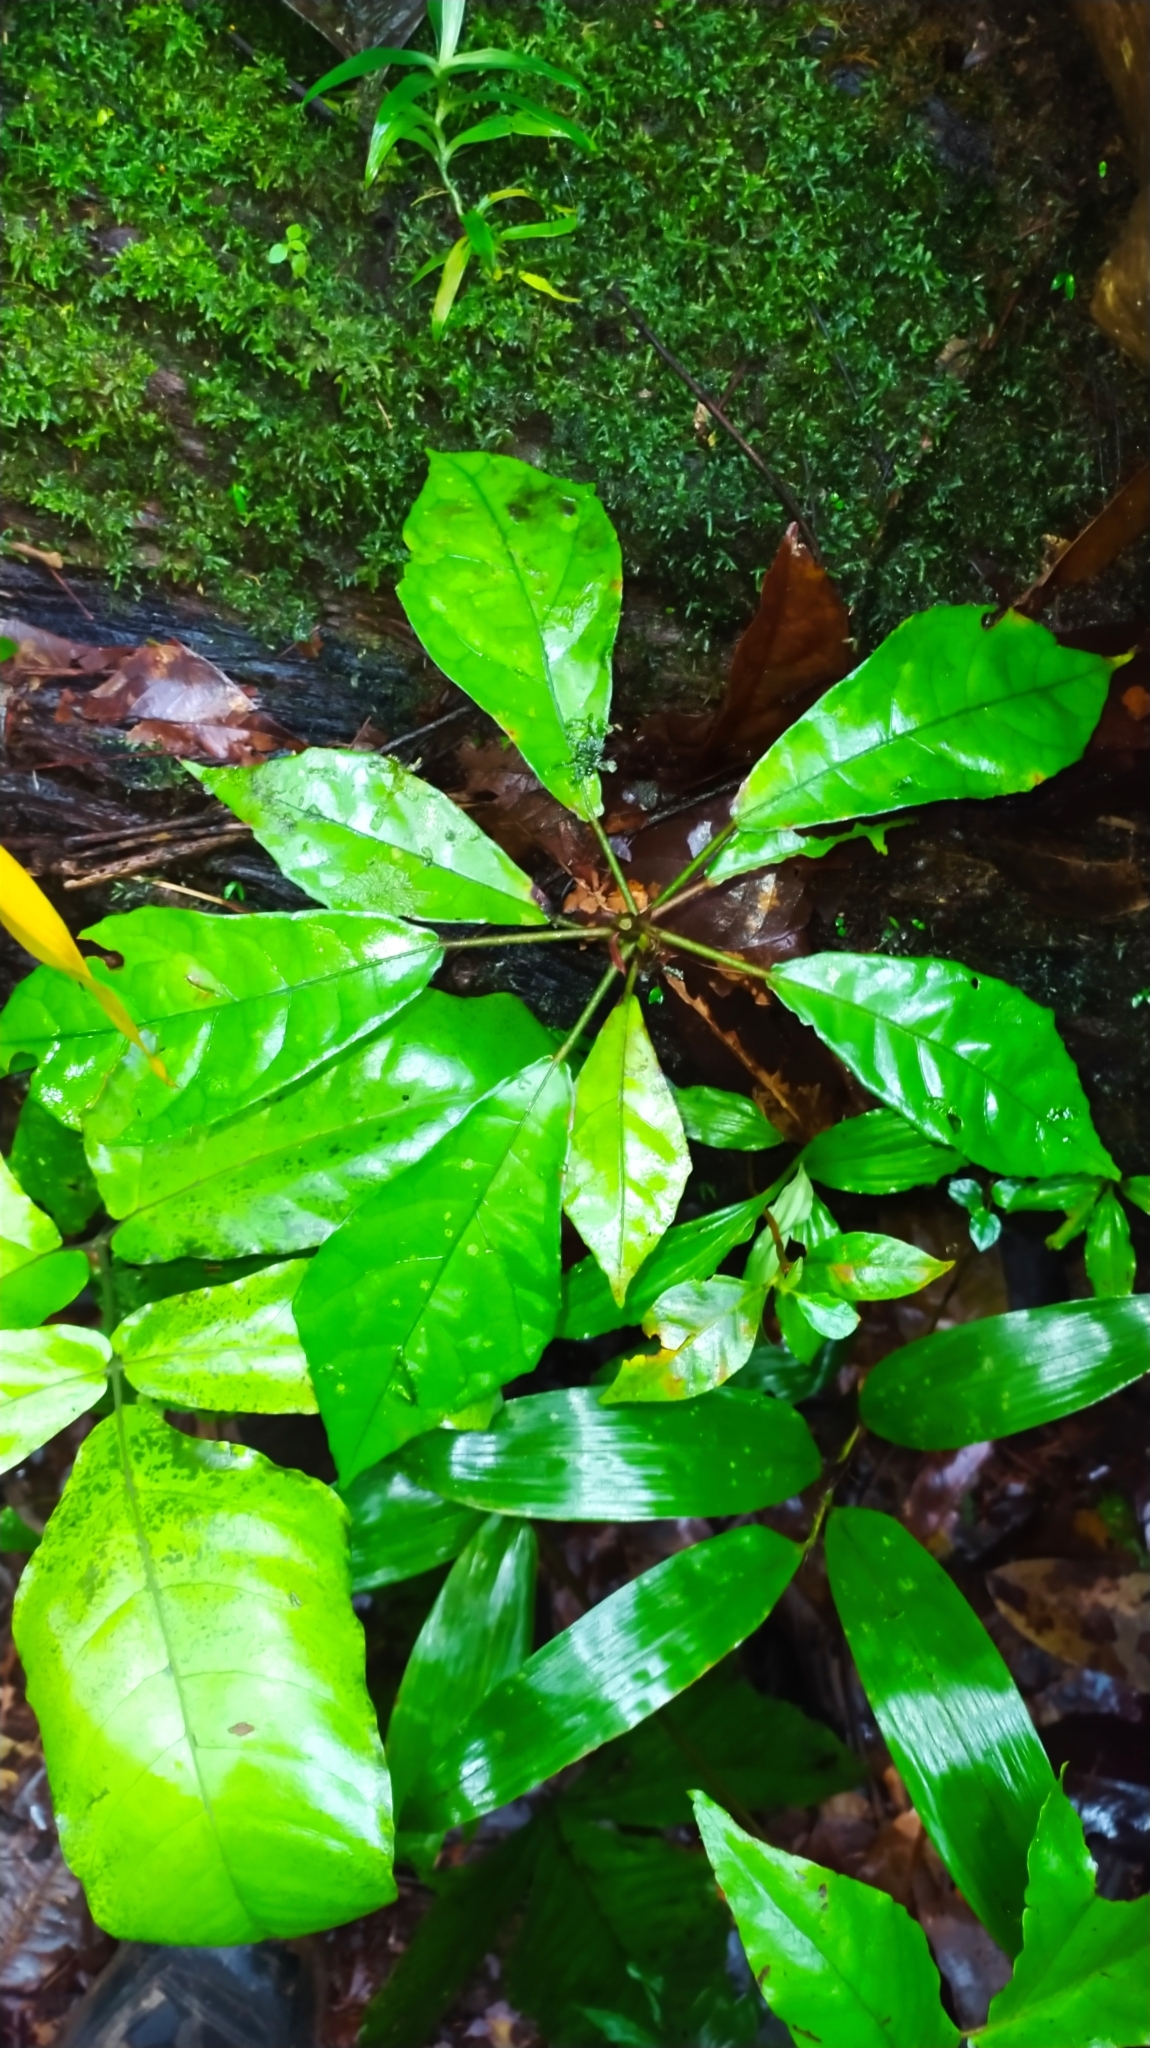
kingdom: Plantae
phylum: Tracheophyta
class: Magnoliopsida
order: Malvales
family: Malvaceae
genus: Pavonia
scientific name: Pavonia castaneifolia
